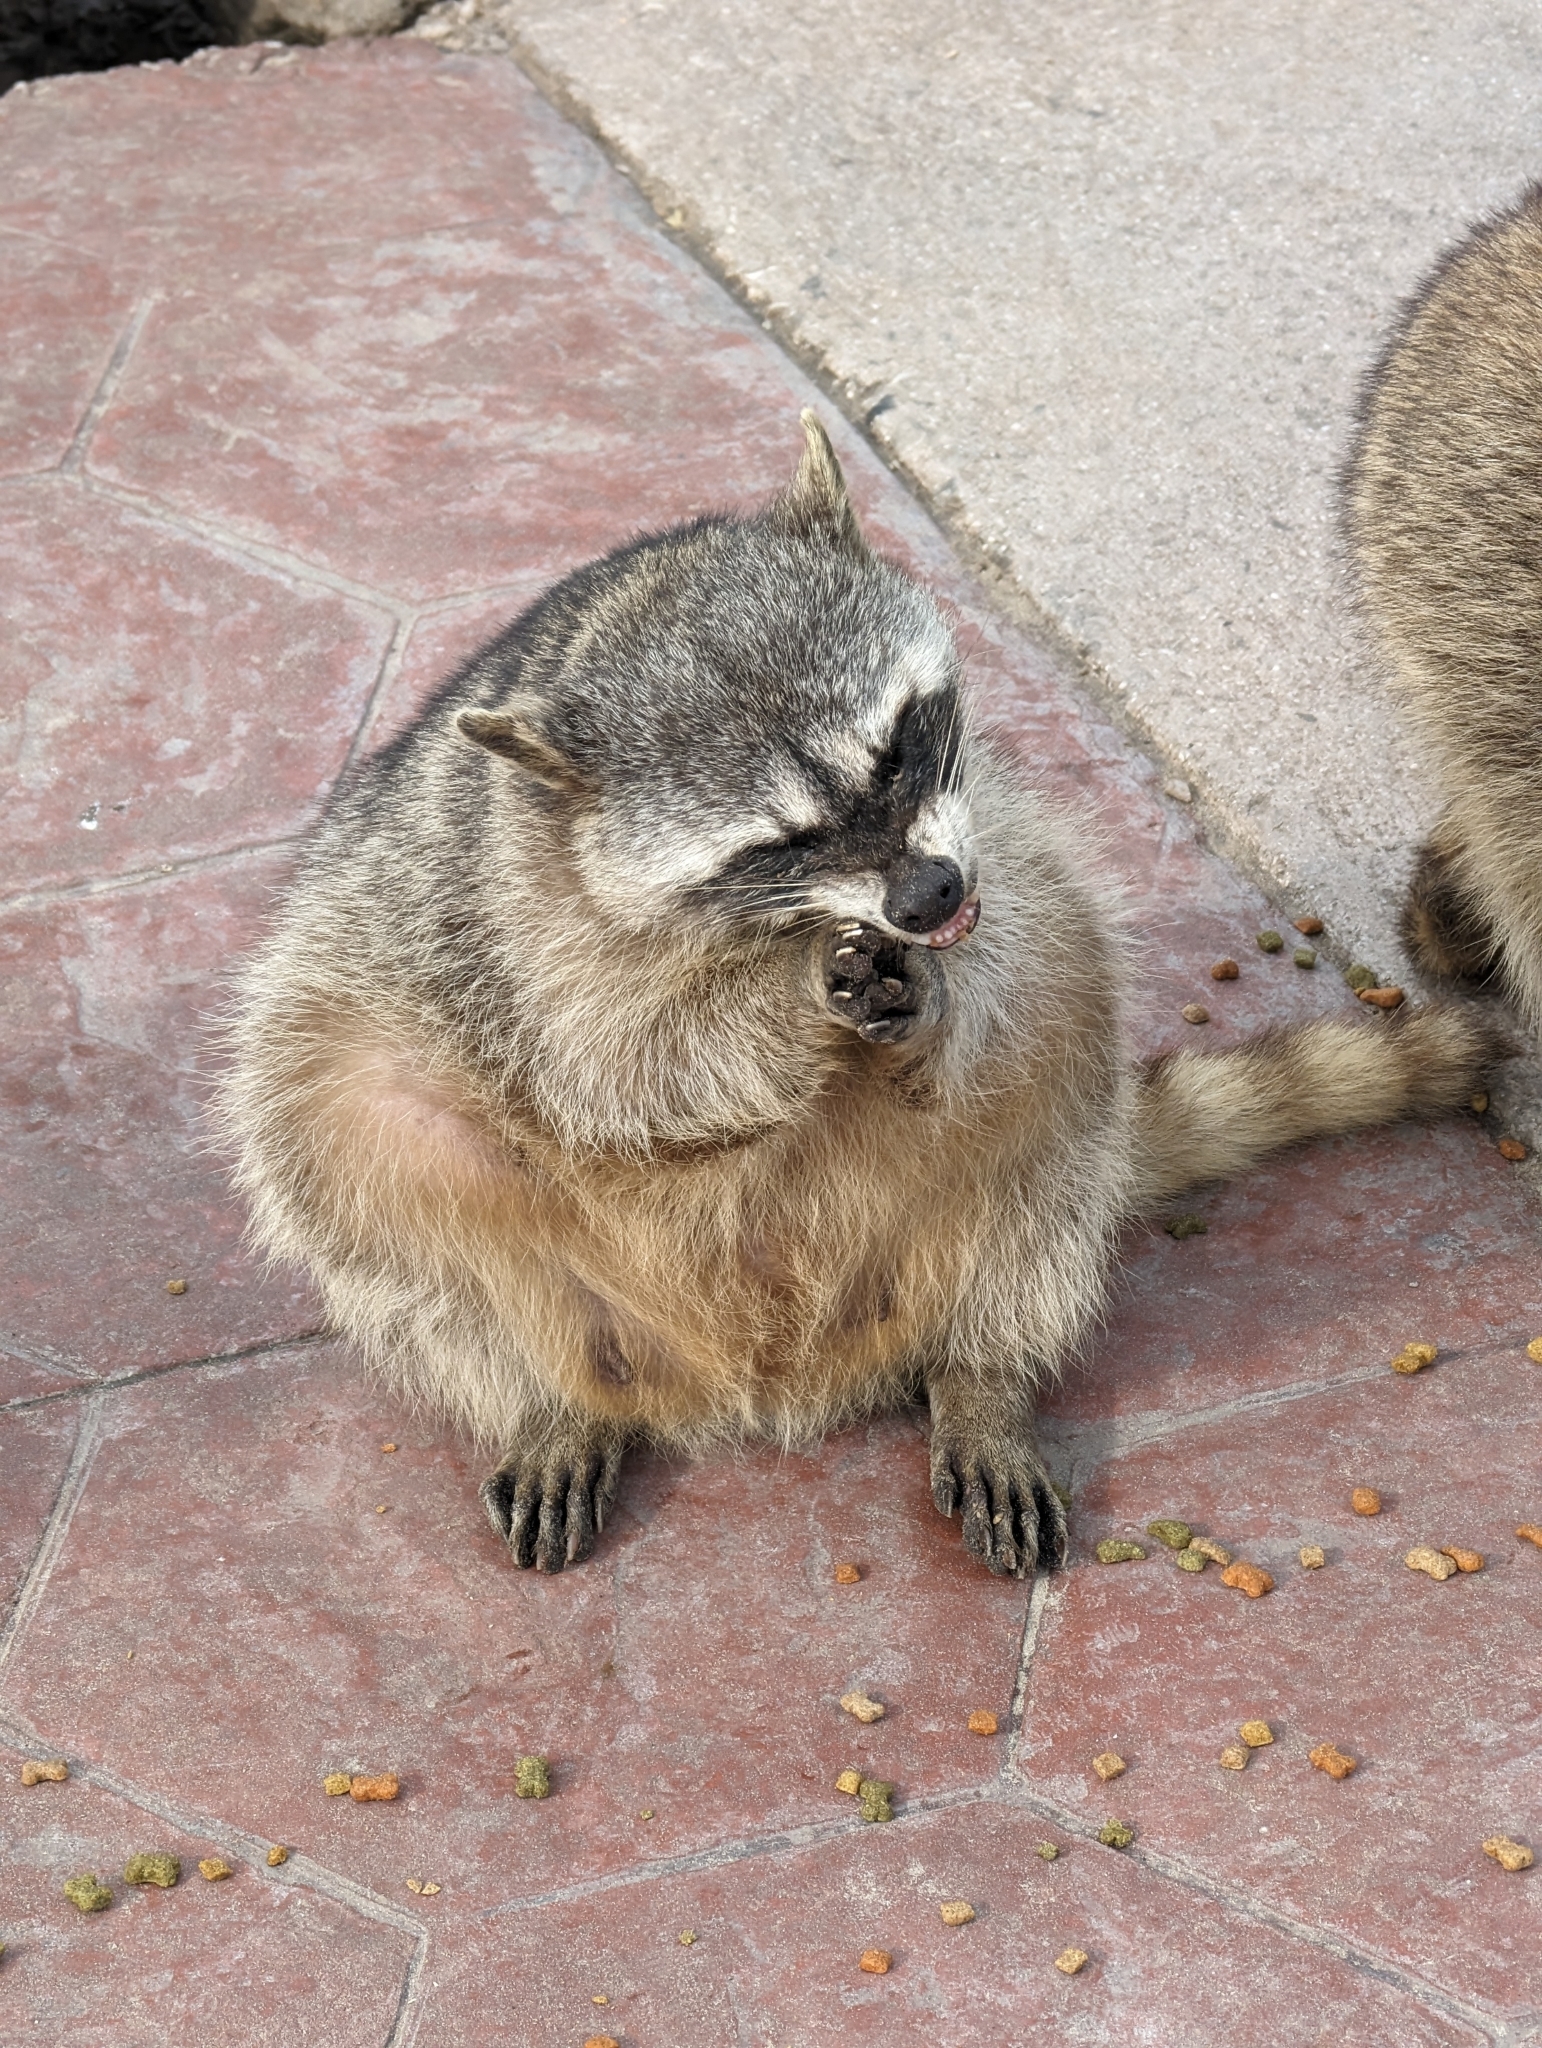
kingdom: Animalia
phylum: Chordata
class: Mammalia
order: Carnivora
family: Procyonidae
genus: Procyon
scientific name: Procyon lotor
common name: Raccoon
